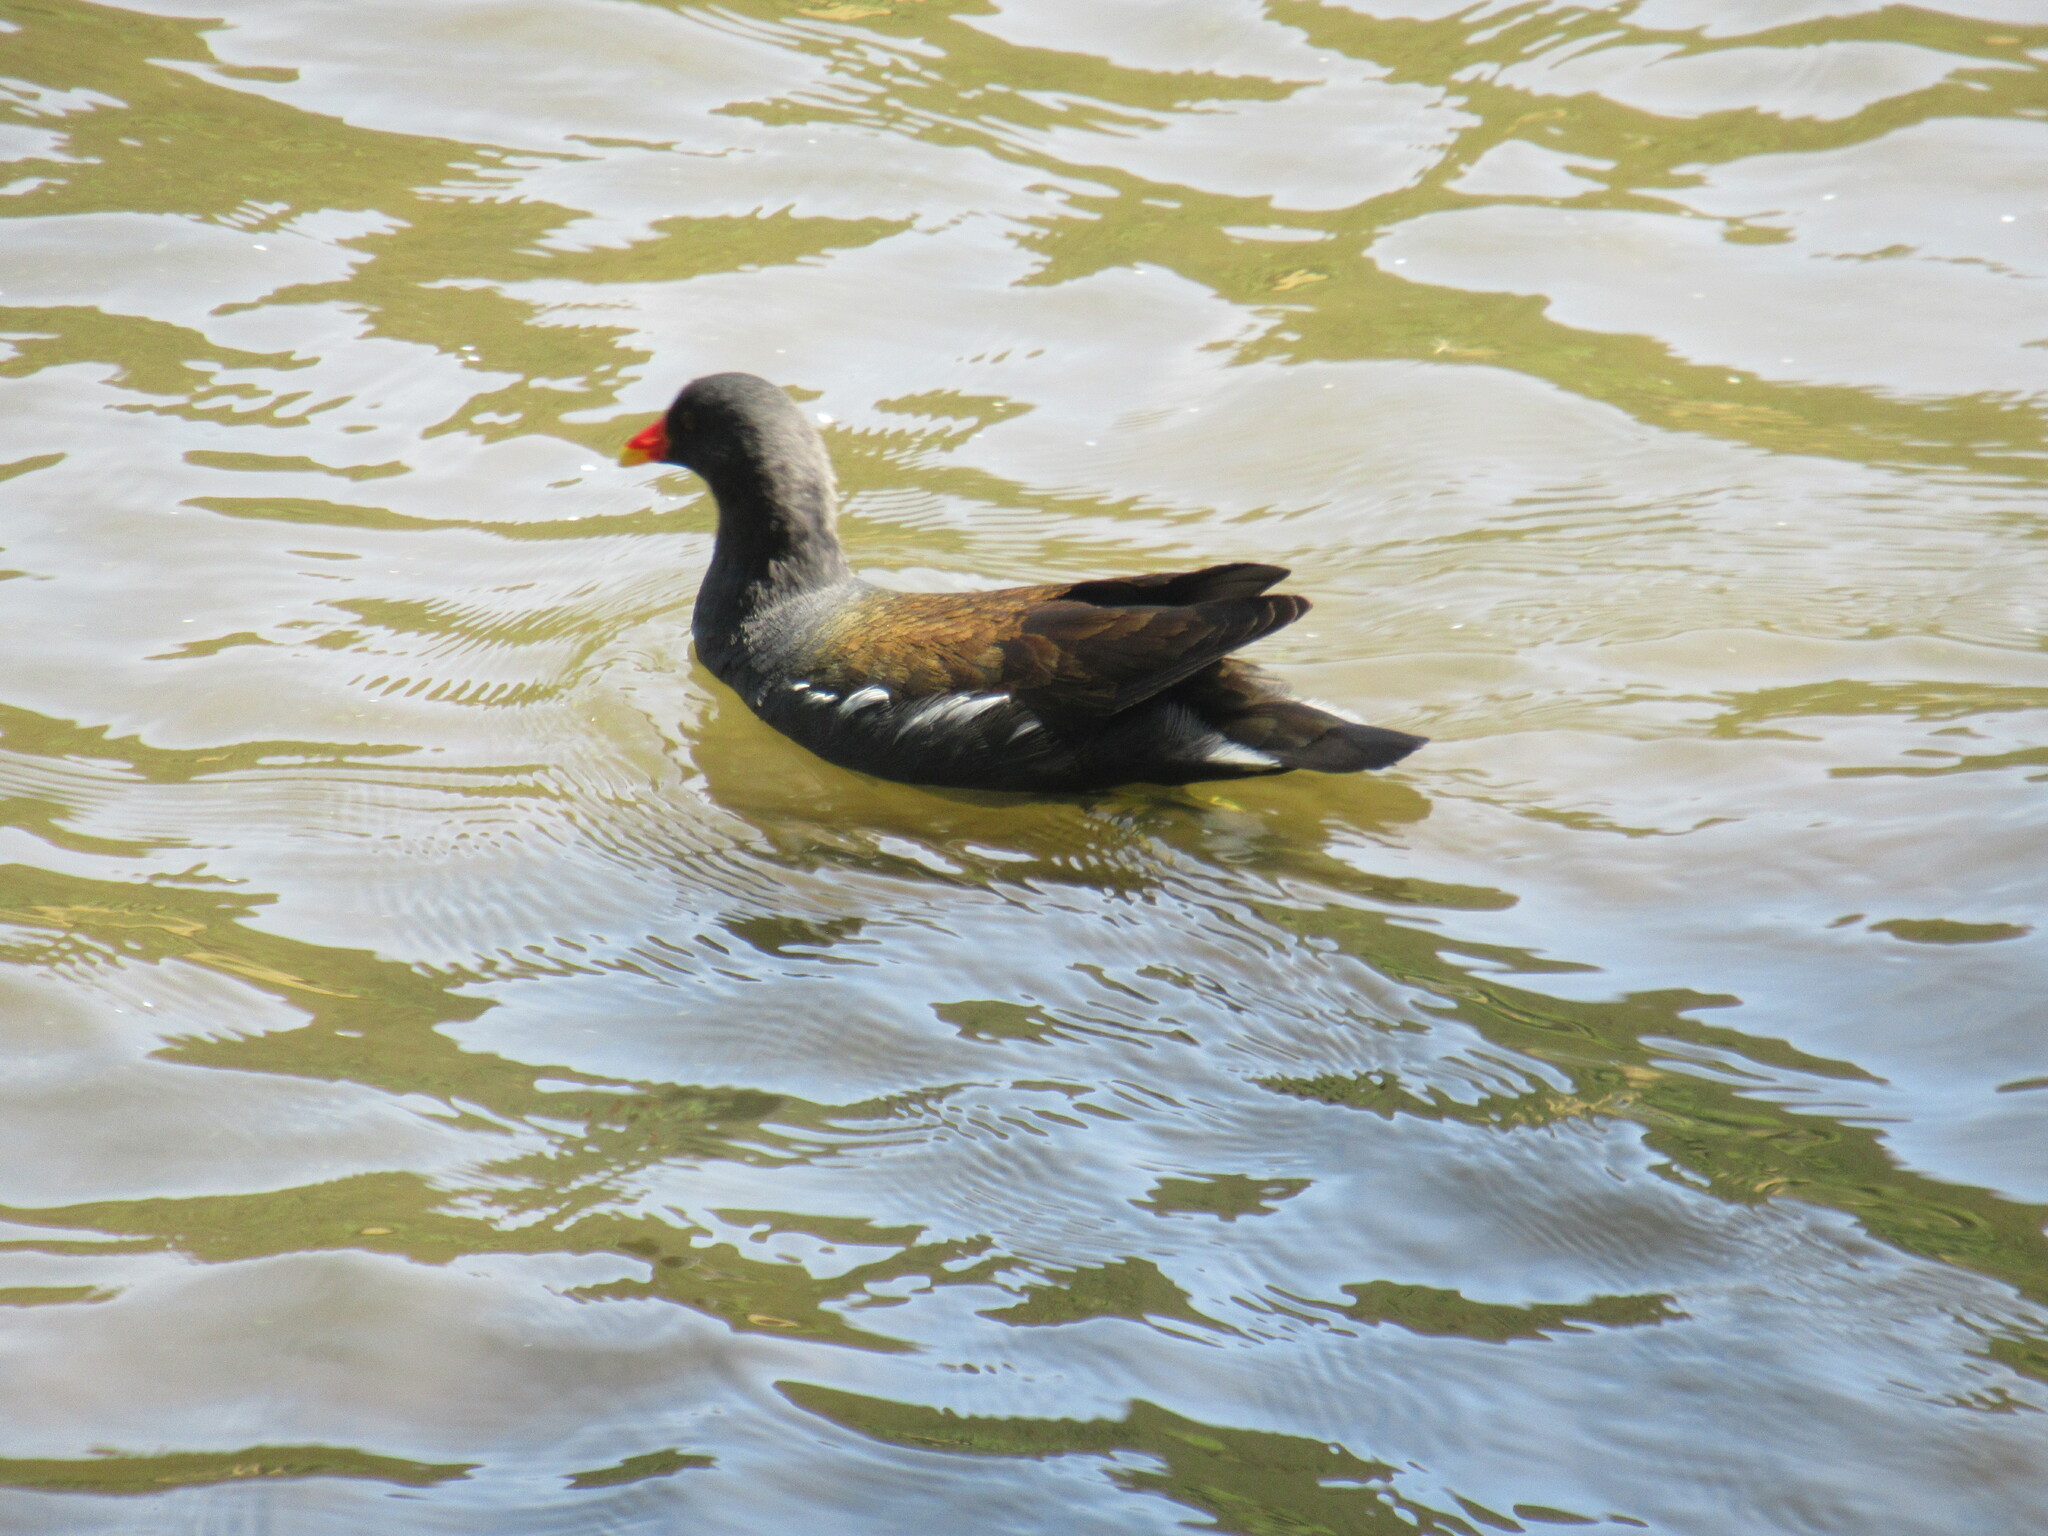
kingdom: Animalia
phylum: Chordata
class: Aves
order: Gruiformes
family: Rallidae
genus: Gallinula
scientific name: Gallinula chloropus
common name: Common moorhen
